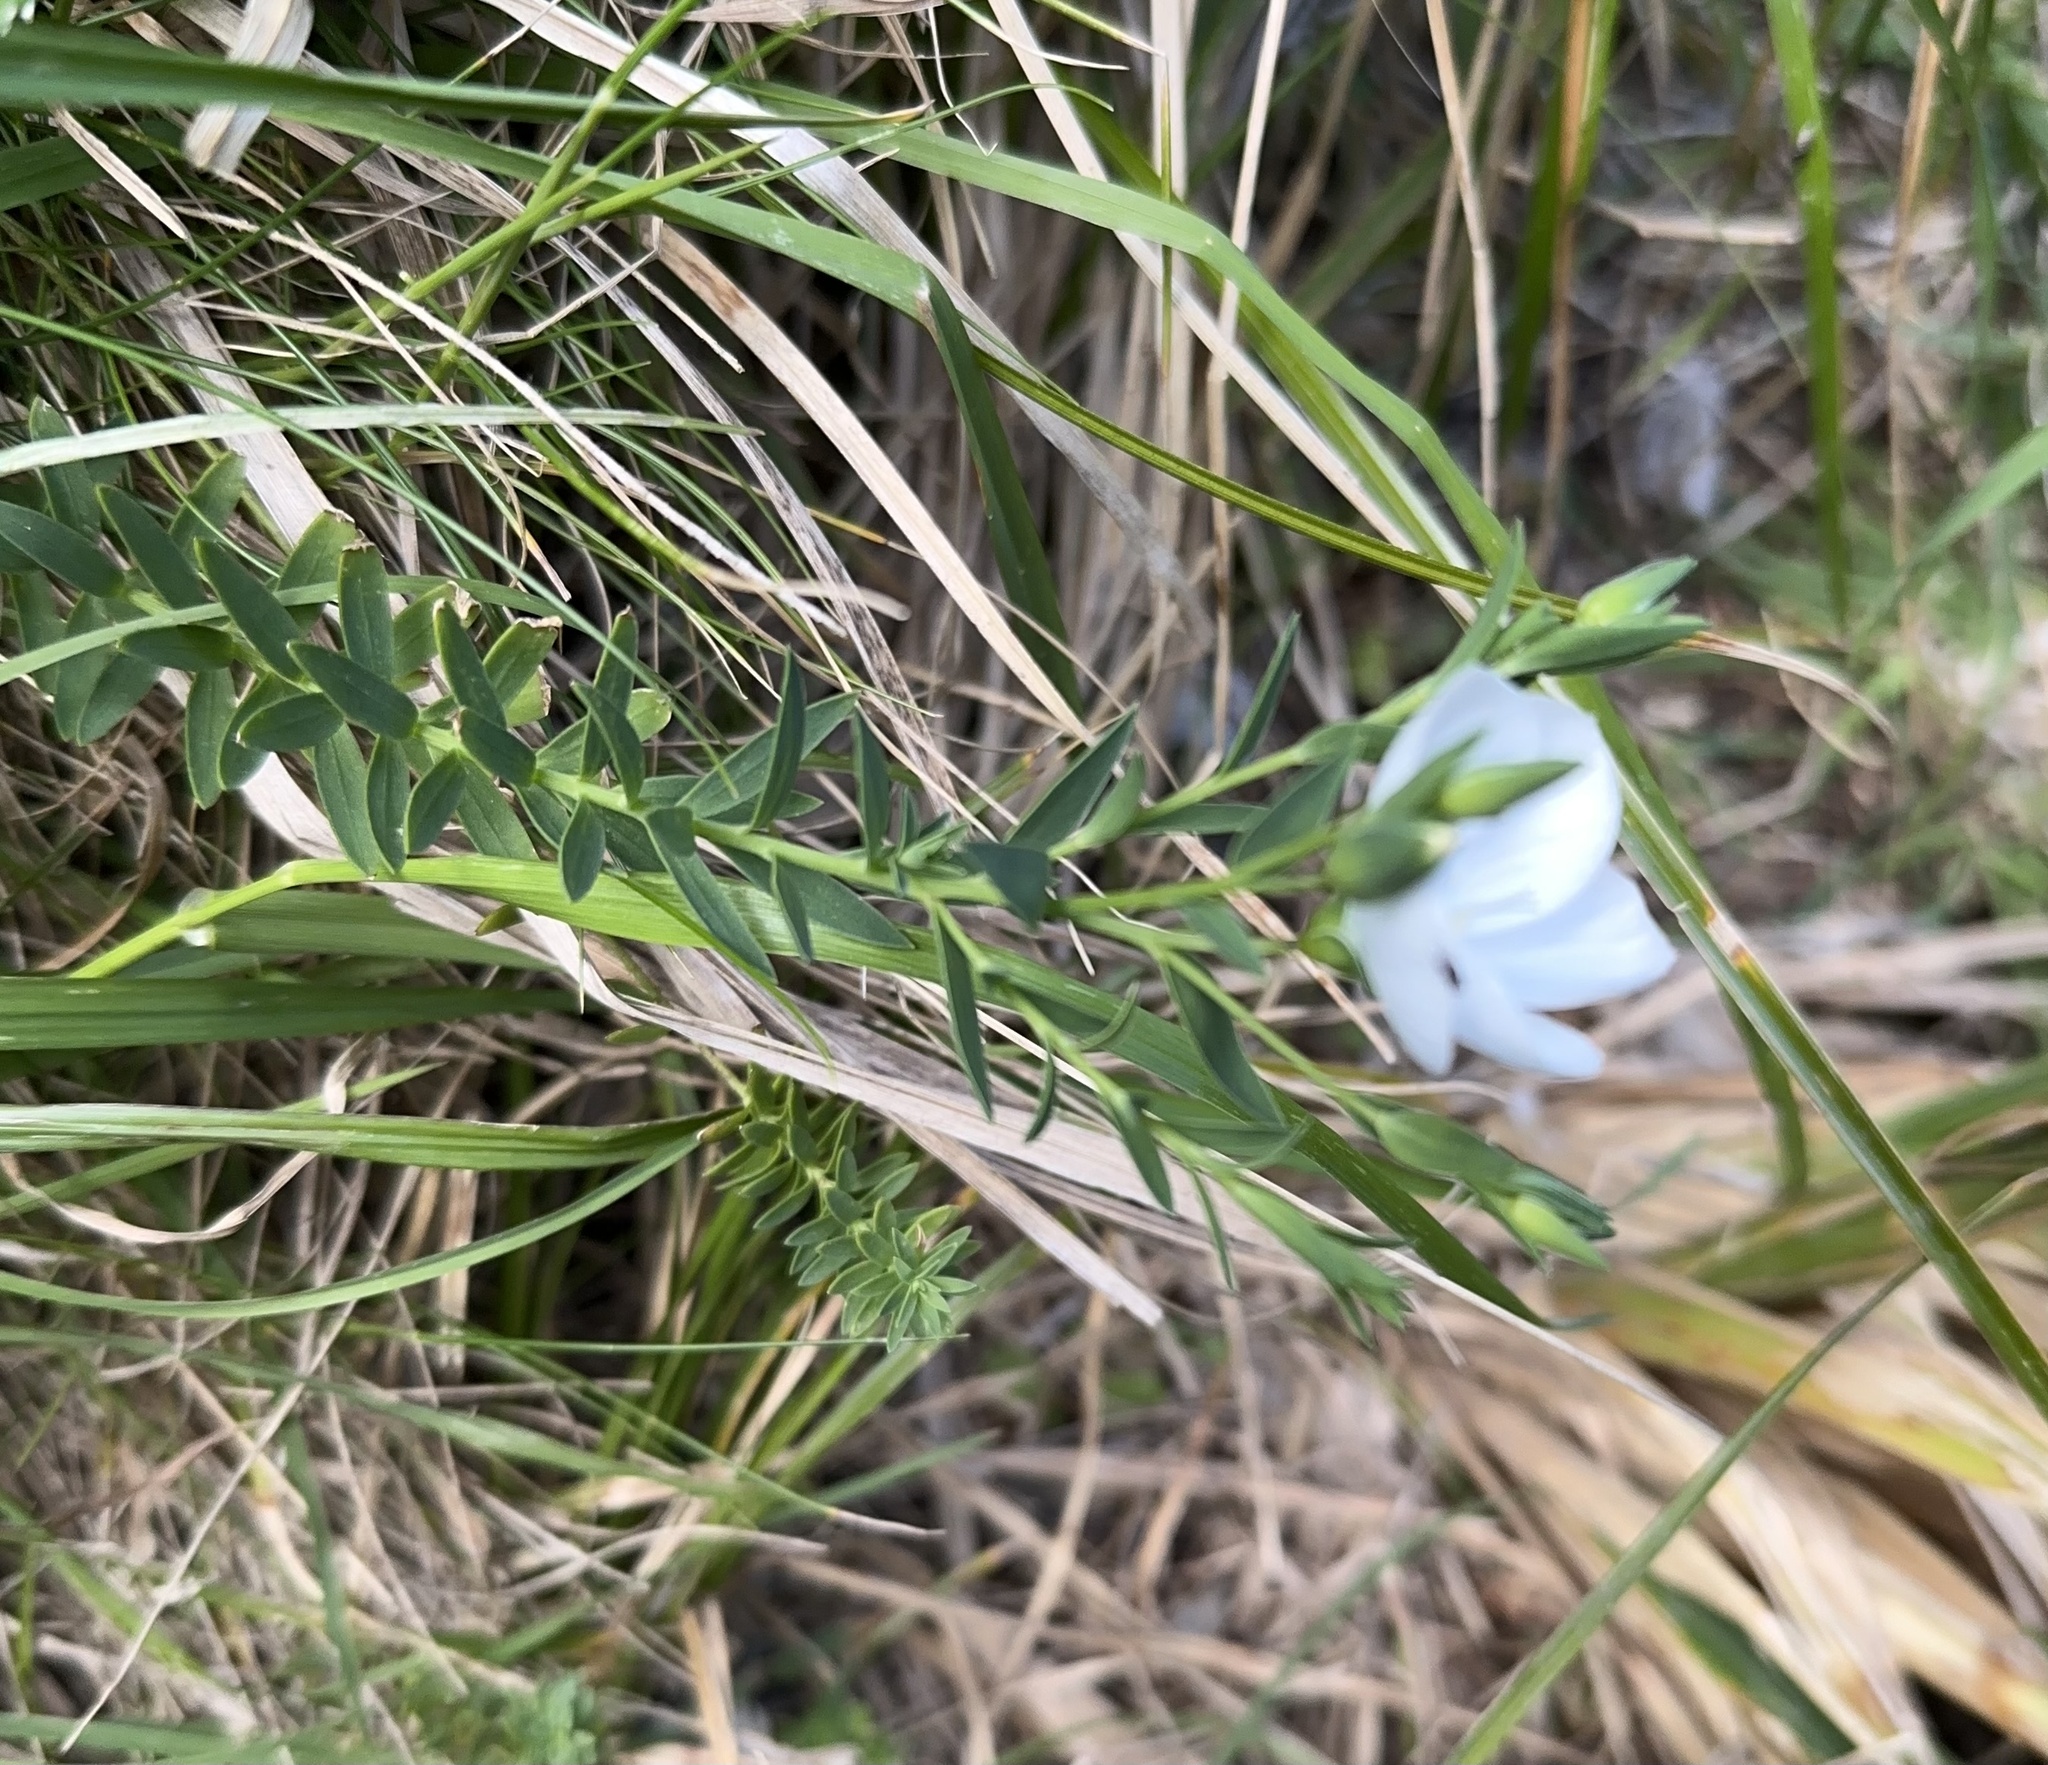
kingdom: Plantae
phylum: Tracheophyta
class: Magnoliopsida
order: Malpighiales
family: Linaceae
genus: Linum
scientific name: Linum monogynum
